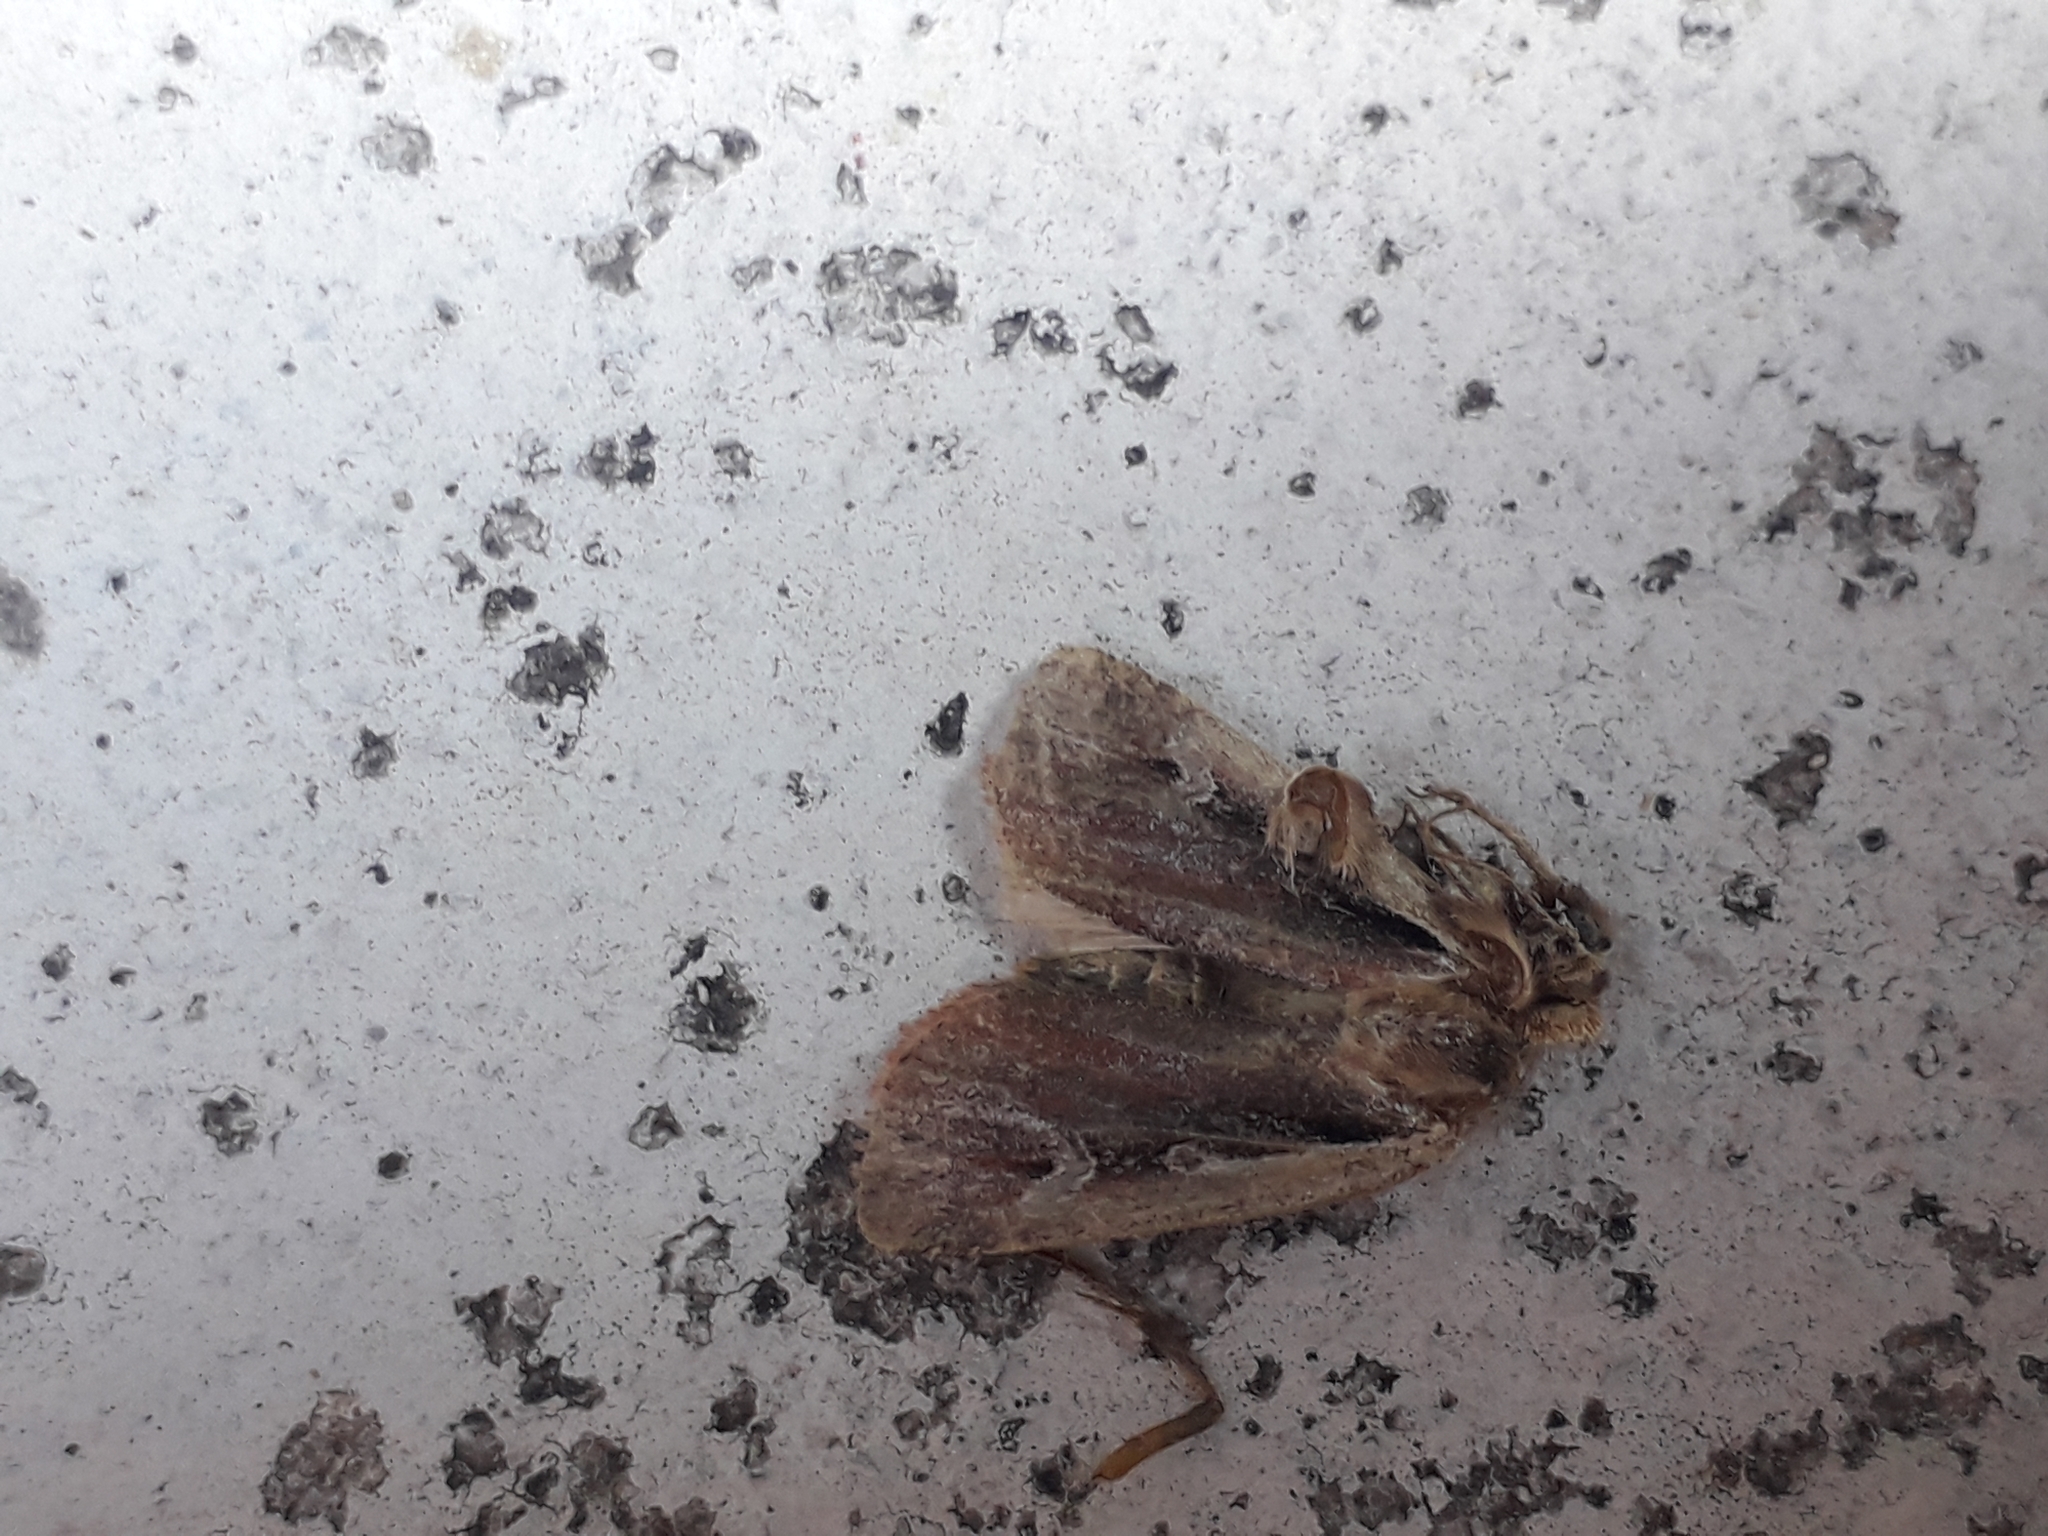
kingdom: Animalia
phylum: Arthropoda
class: Insecta
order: Lepidoptera
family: Noctuidae
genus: Ochropleura
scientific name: Ochropleura plecta
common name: Flame shoulder
